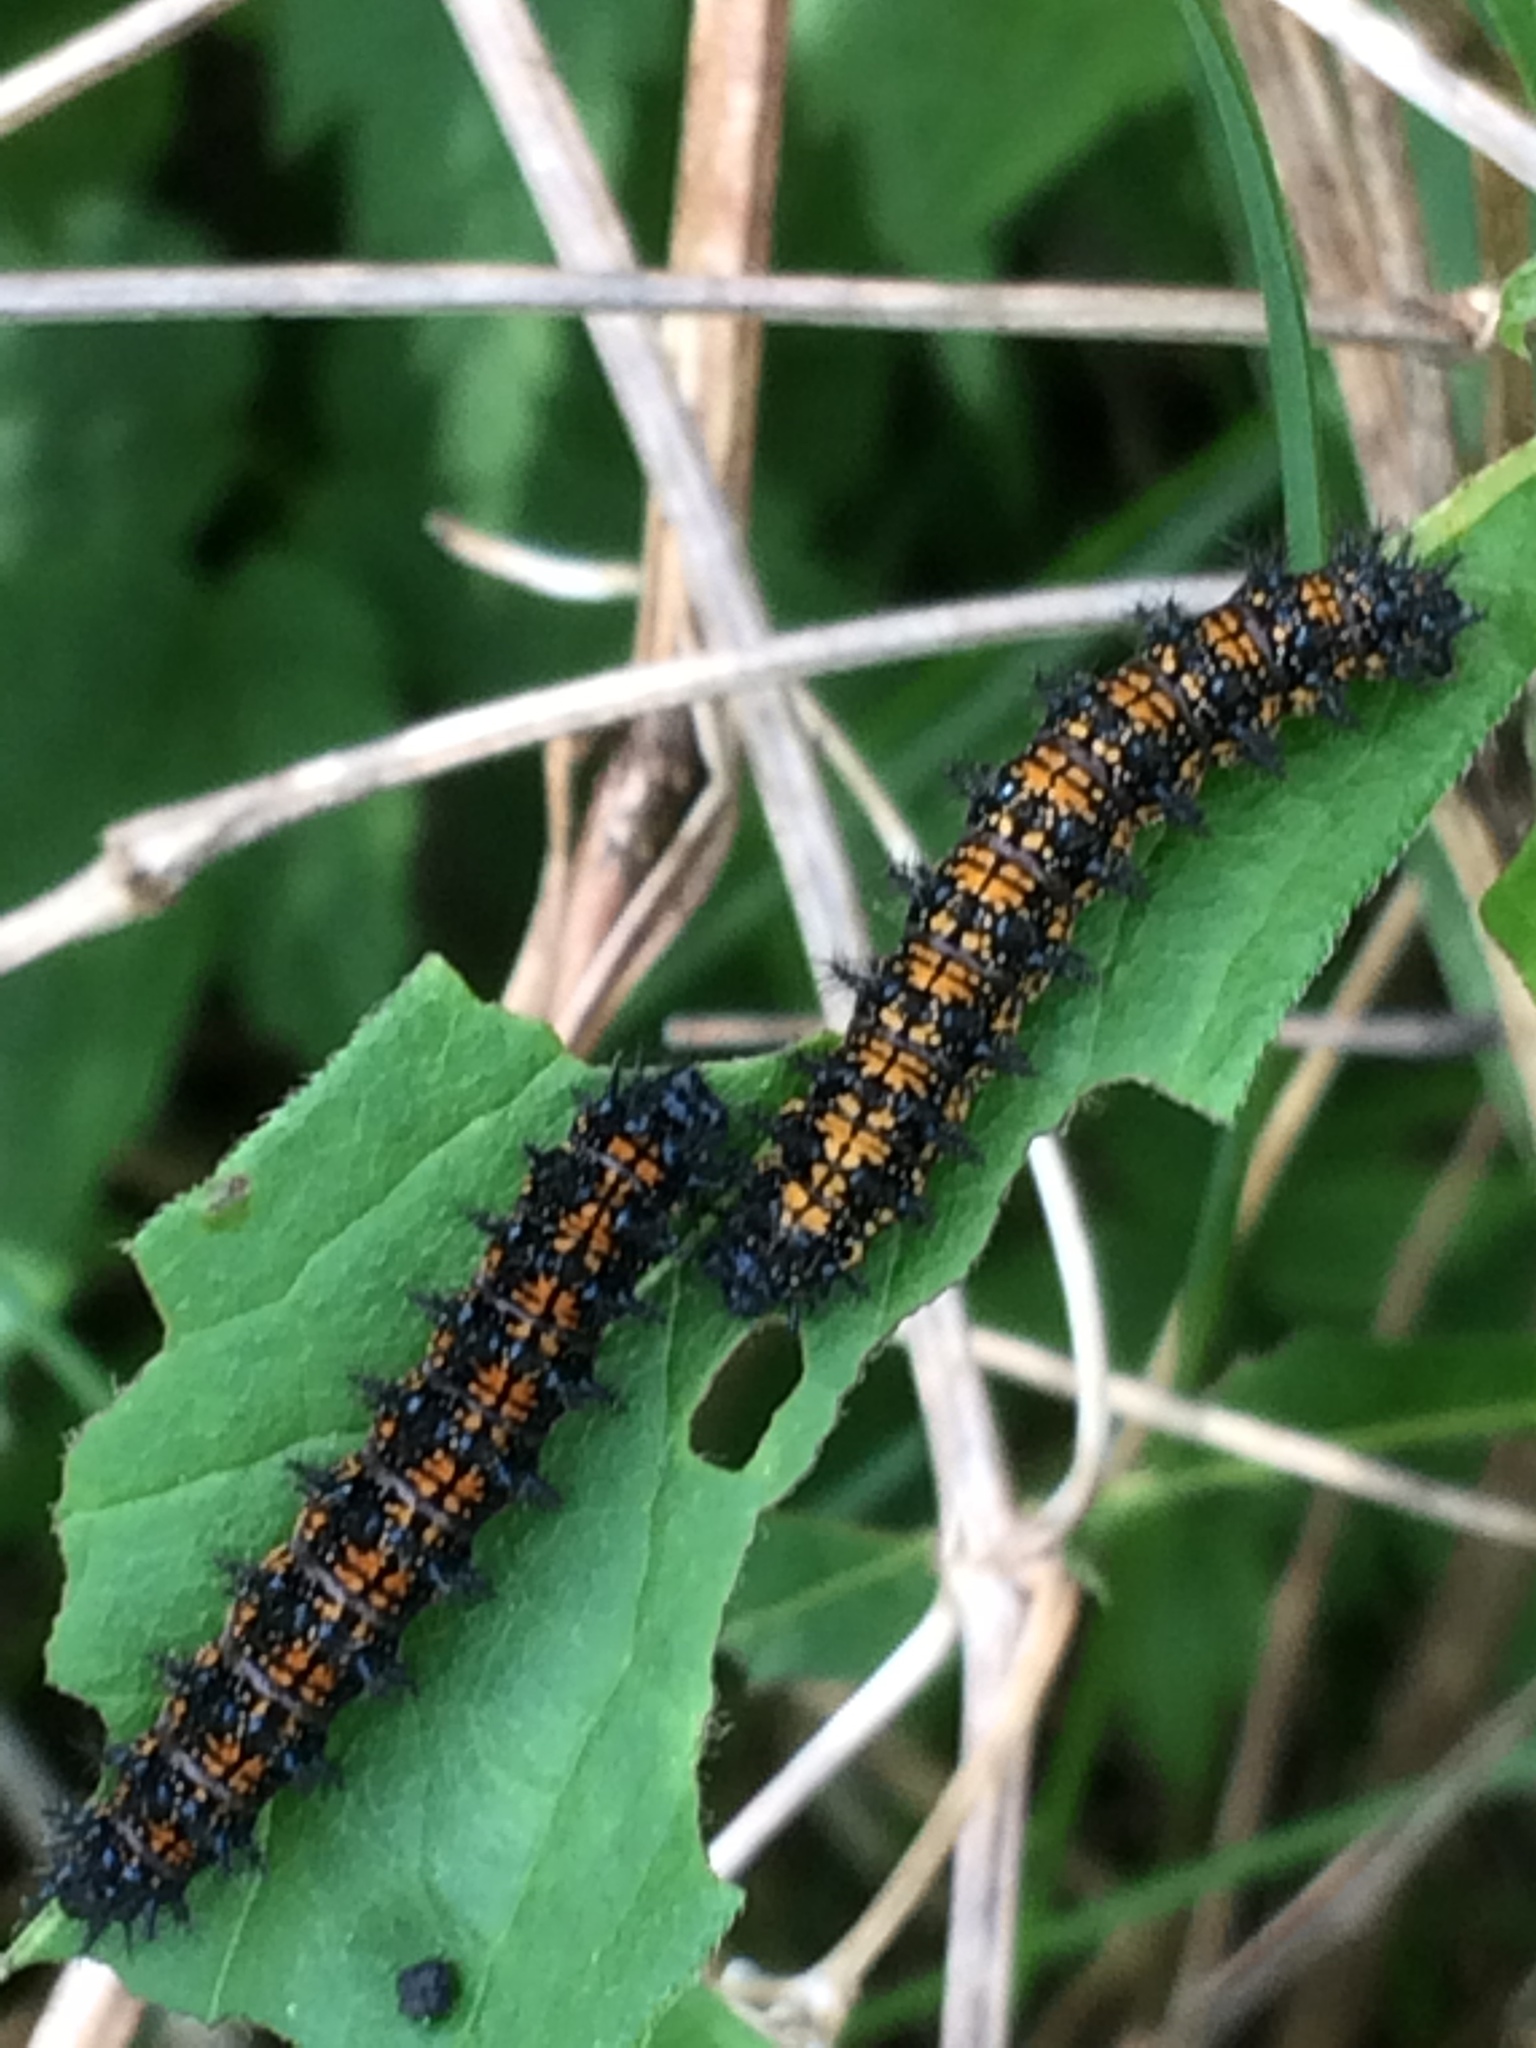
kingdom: Animalia
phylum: Arthropoda
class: Insecta
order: Lepidoptera
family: Nymphalidae
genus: Chlosyne
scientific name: Chlosyne harrisii
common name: Harris's checkerspot
